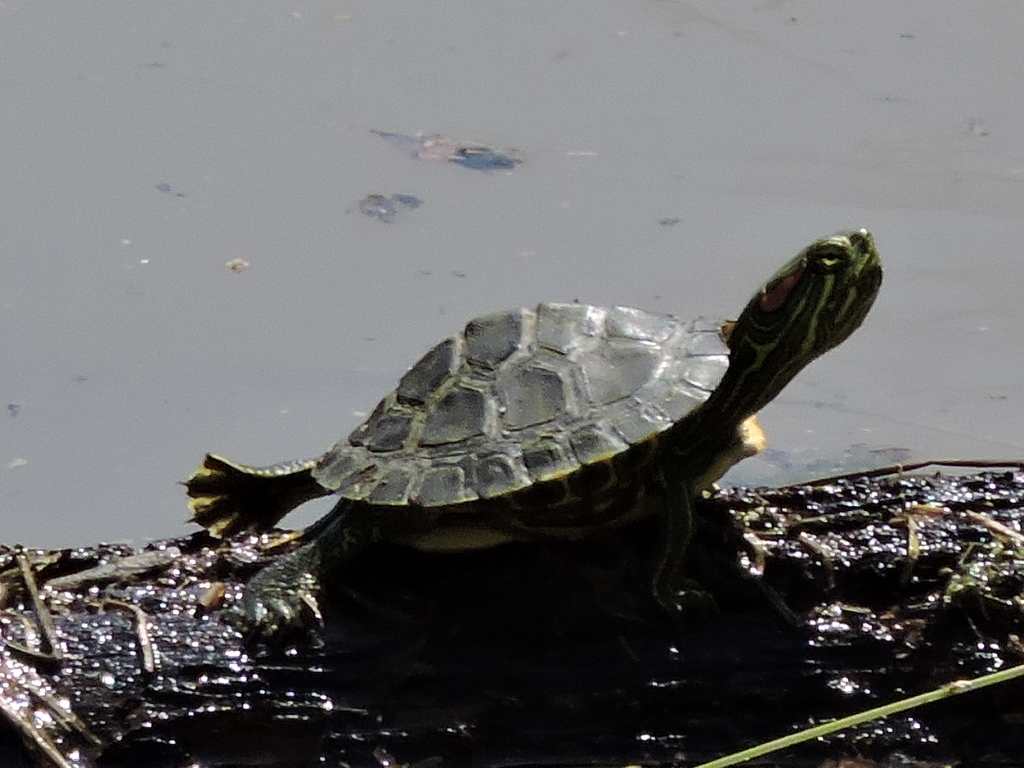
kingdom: Animalia
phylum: Chordata
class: Testudines
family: Emydidae
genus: Trachemys
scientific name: Trachemys scripta
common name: Slider
